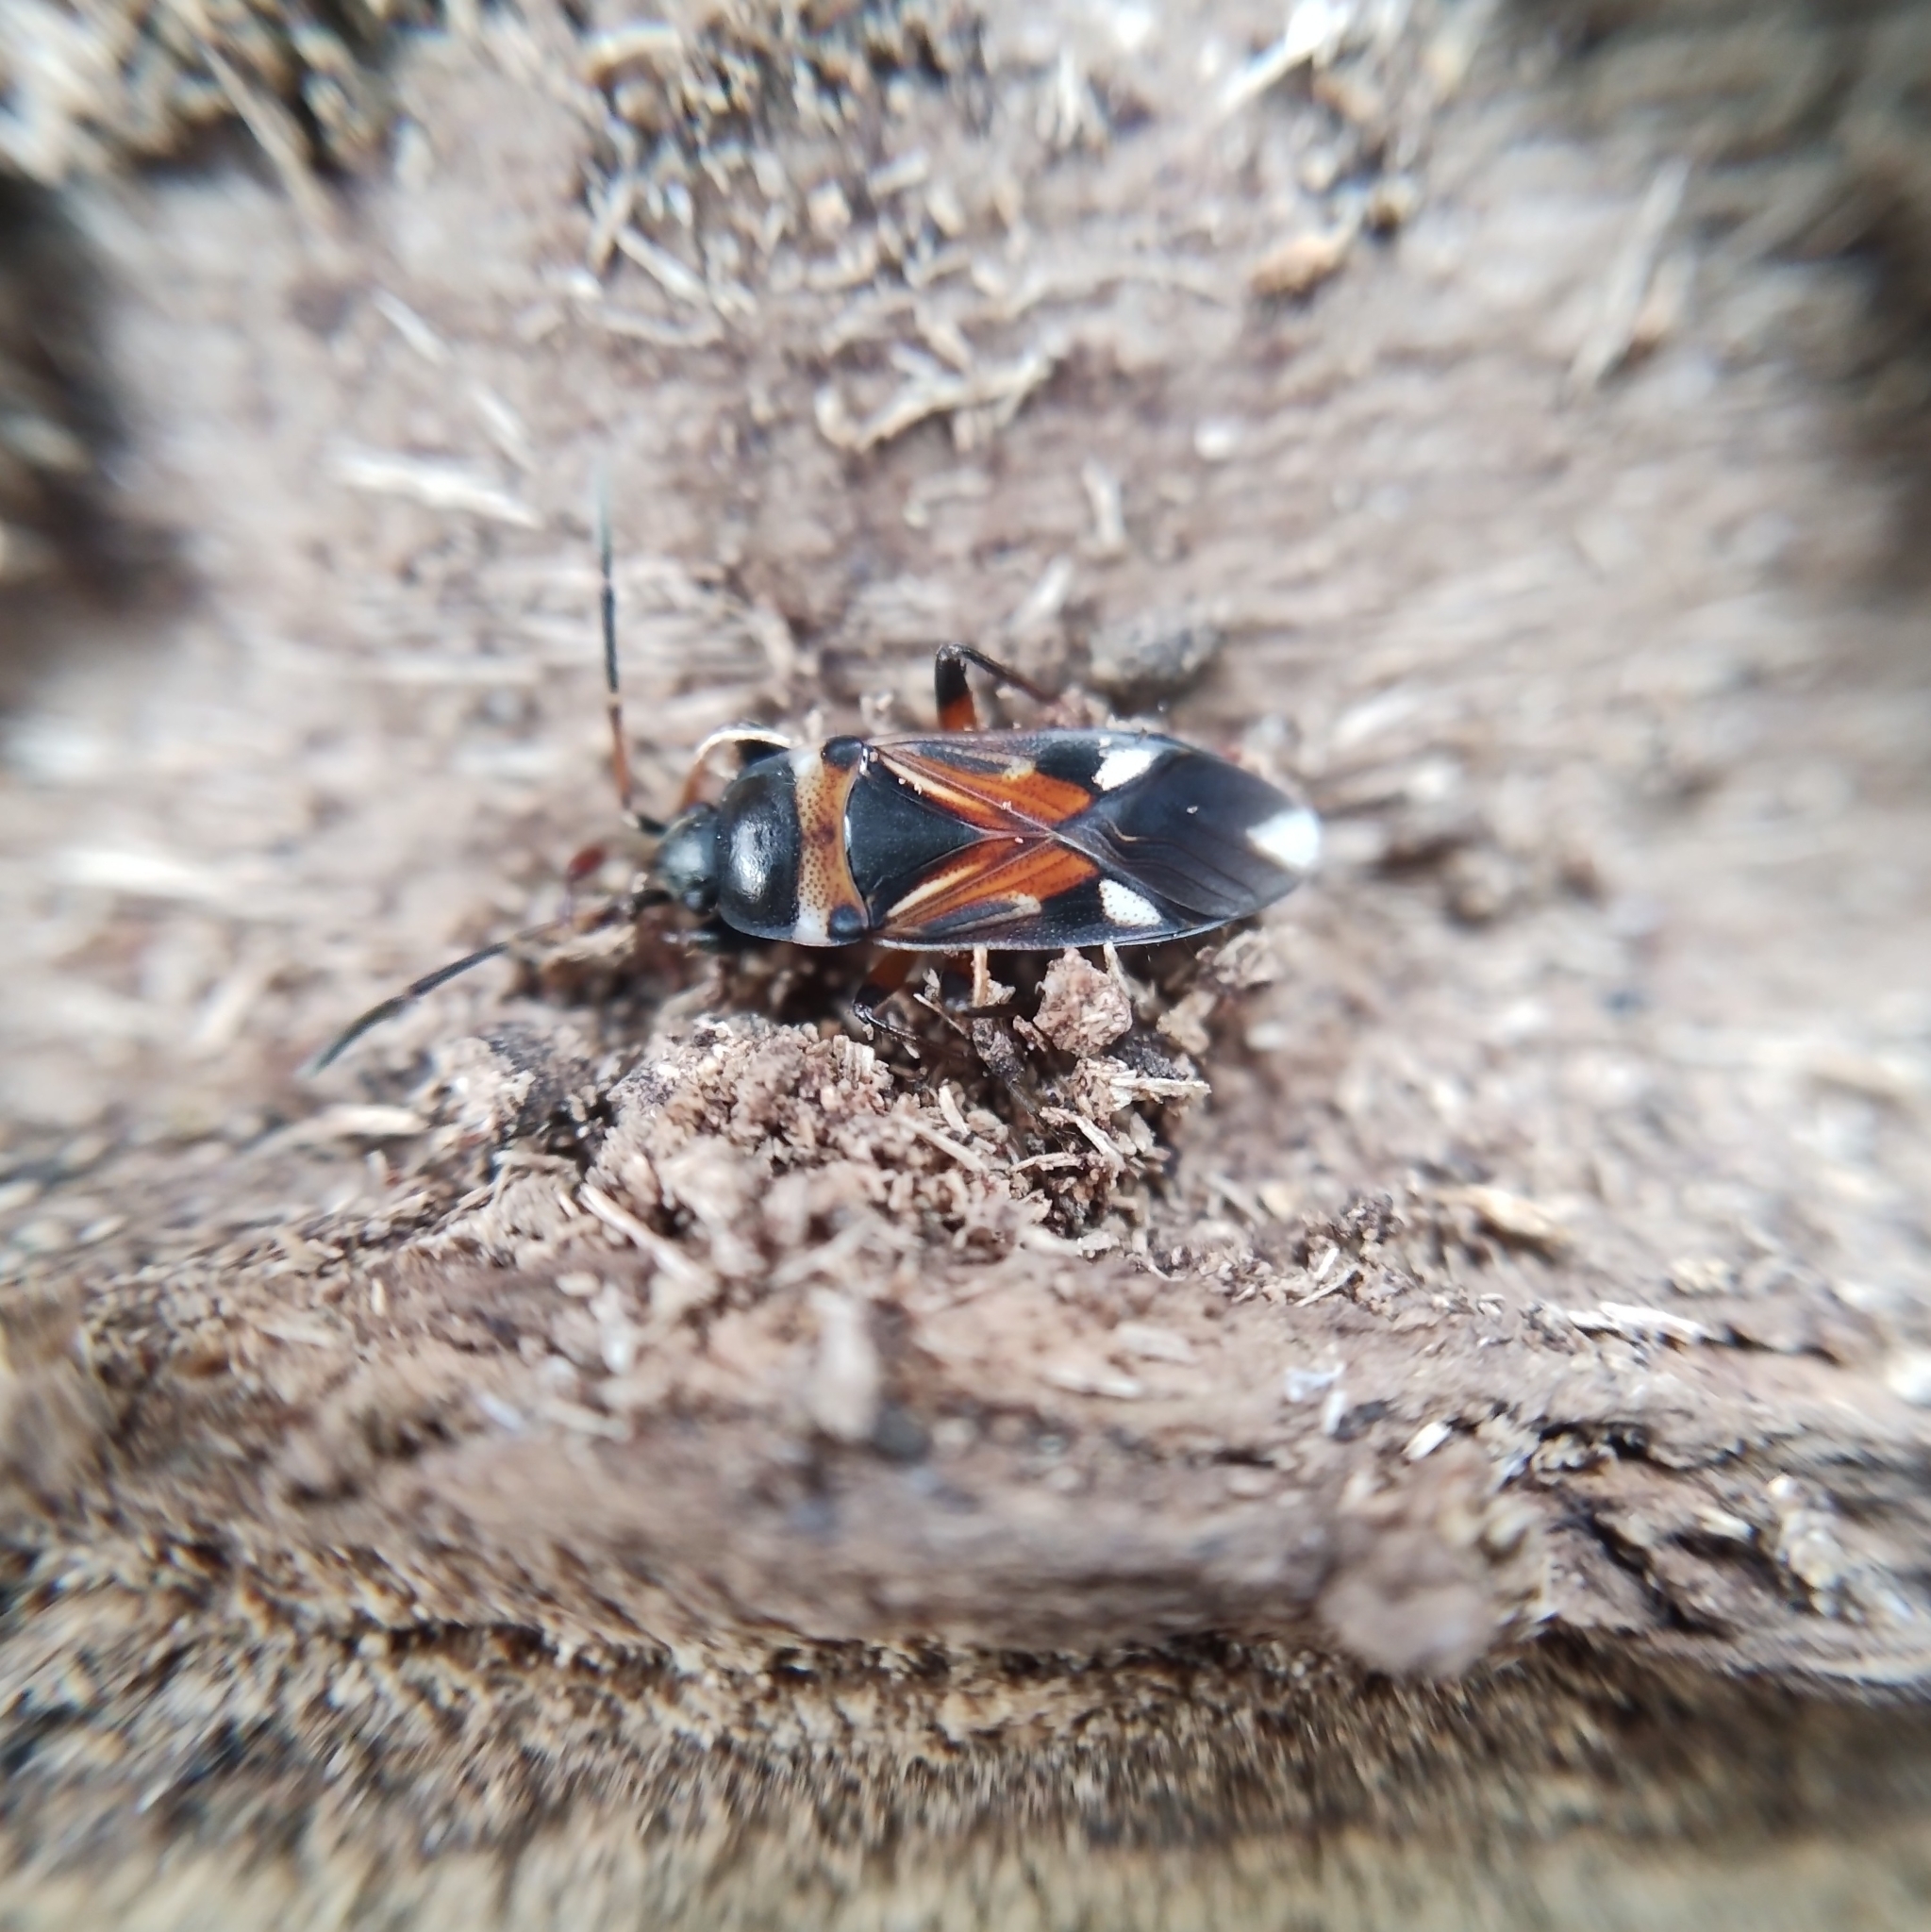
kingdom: Animalia
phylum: Arthropoda
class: Insecta
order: Hemiptera
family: Rhyparochromidae
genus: Raglius
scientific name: Raglius alboacuminatus
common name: Dirt-colored seed bug
